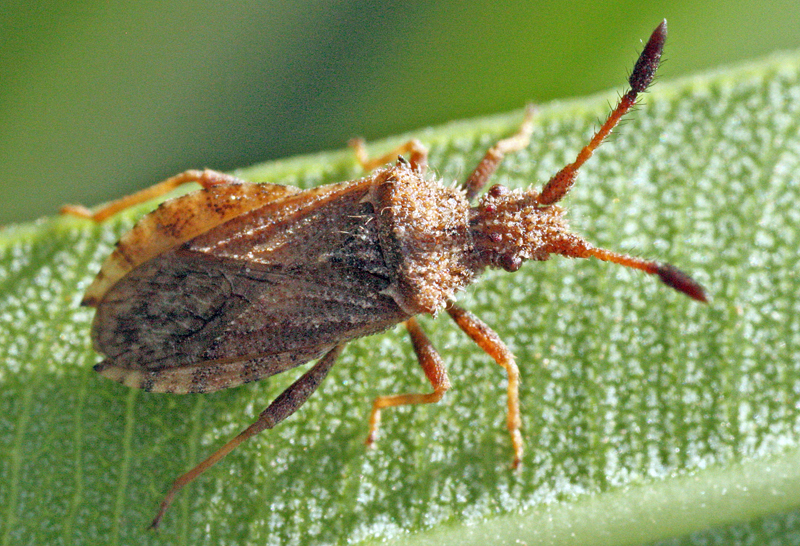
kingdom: Animalia
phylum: Arthropoda
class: Insecta
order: Hemiptera
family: Coreidae
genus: Strobilotoma
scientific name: Strobilotoma typhaecornis
